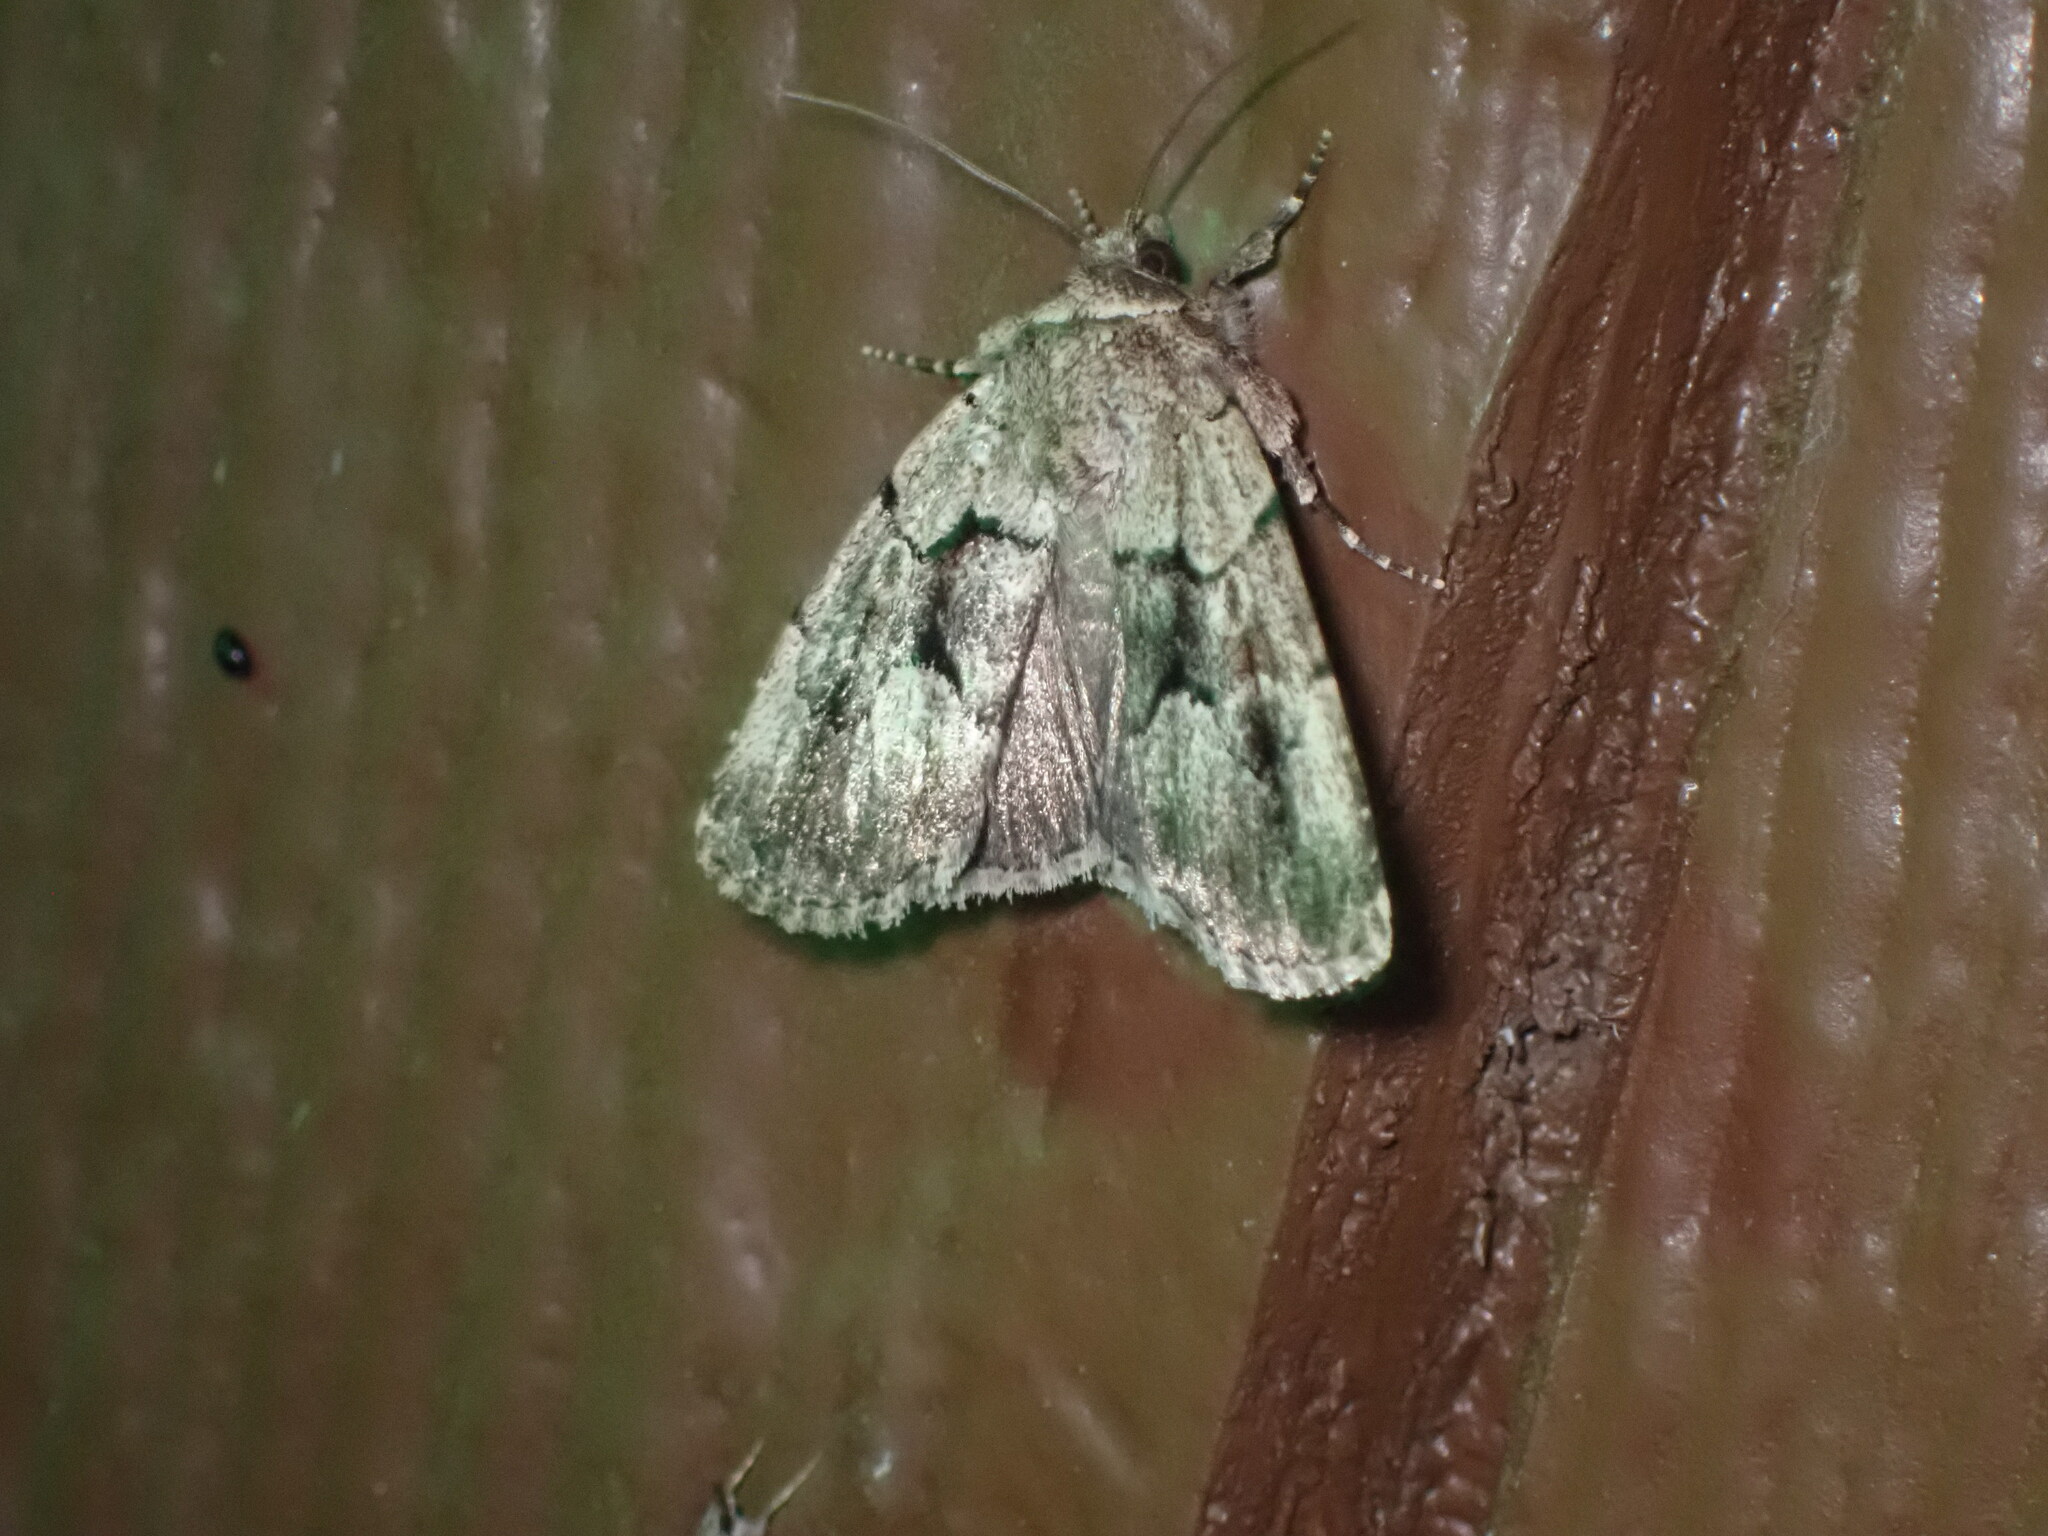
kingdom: Animalia
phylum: Arthropoda
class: Insecta
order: Lepidoptera
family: Noctuidae
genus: Sympistis
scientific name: Sympistis dinalda
